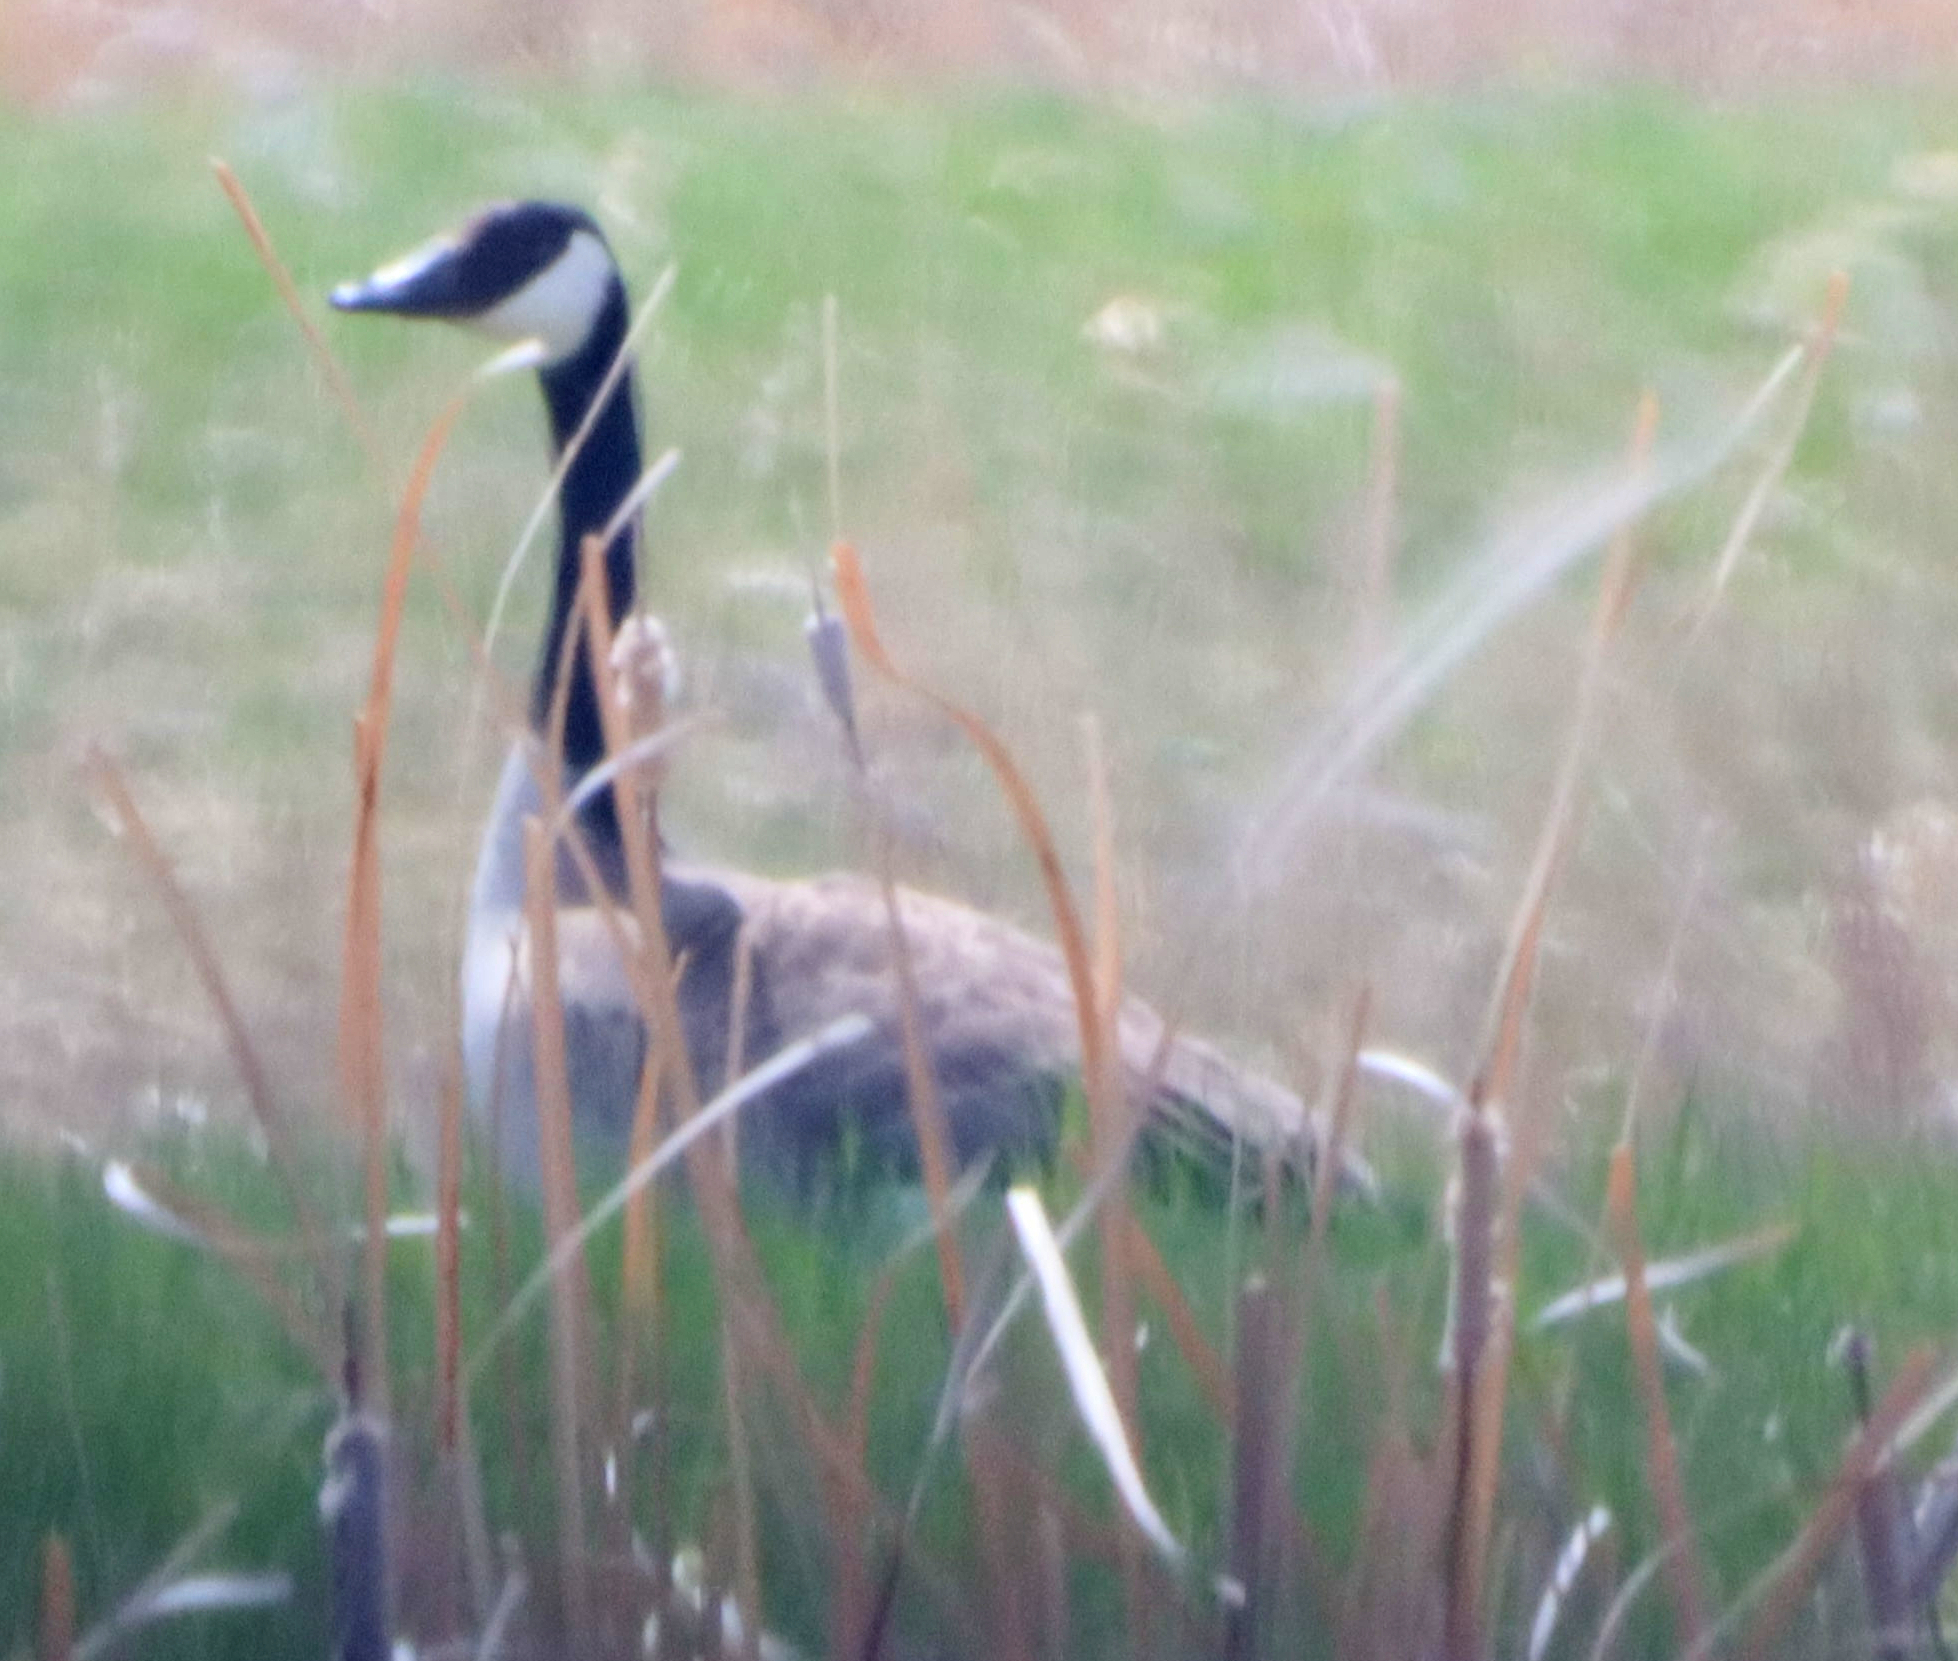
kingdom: Animalia
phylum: Chordata
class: Aves
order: Anseriformes
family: Anatidae
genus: Branta
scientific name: Branta canadensis
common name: Canada goose
